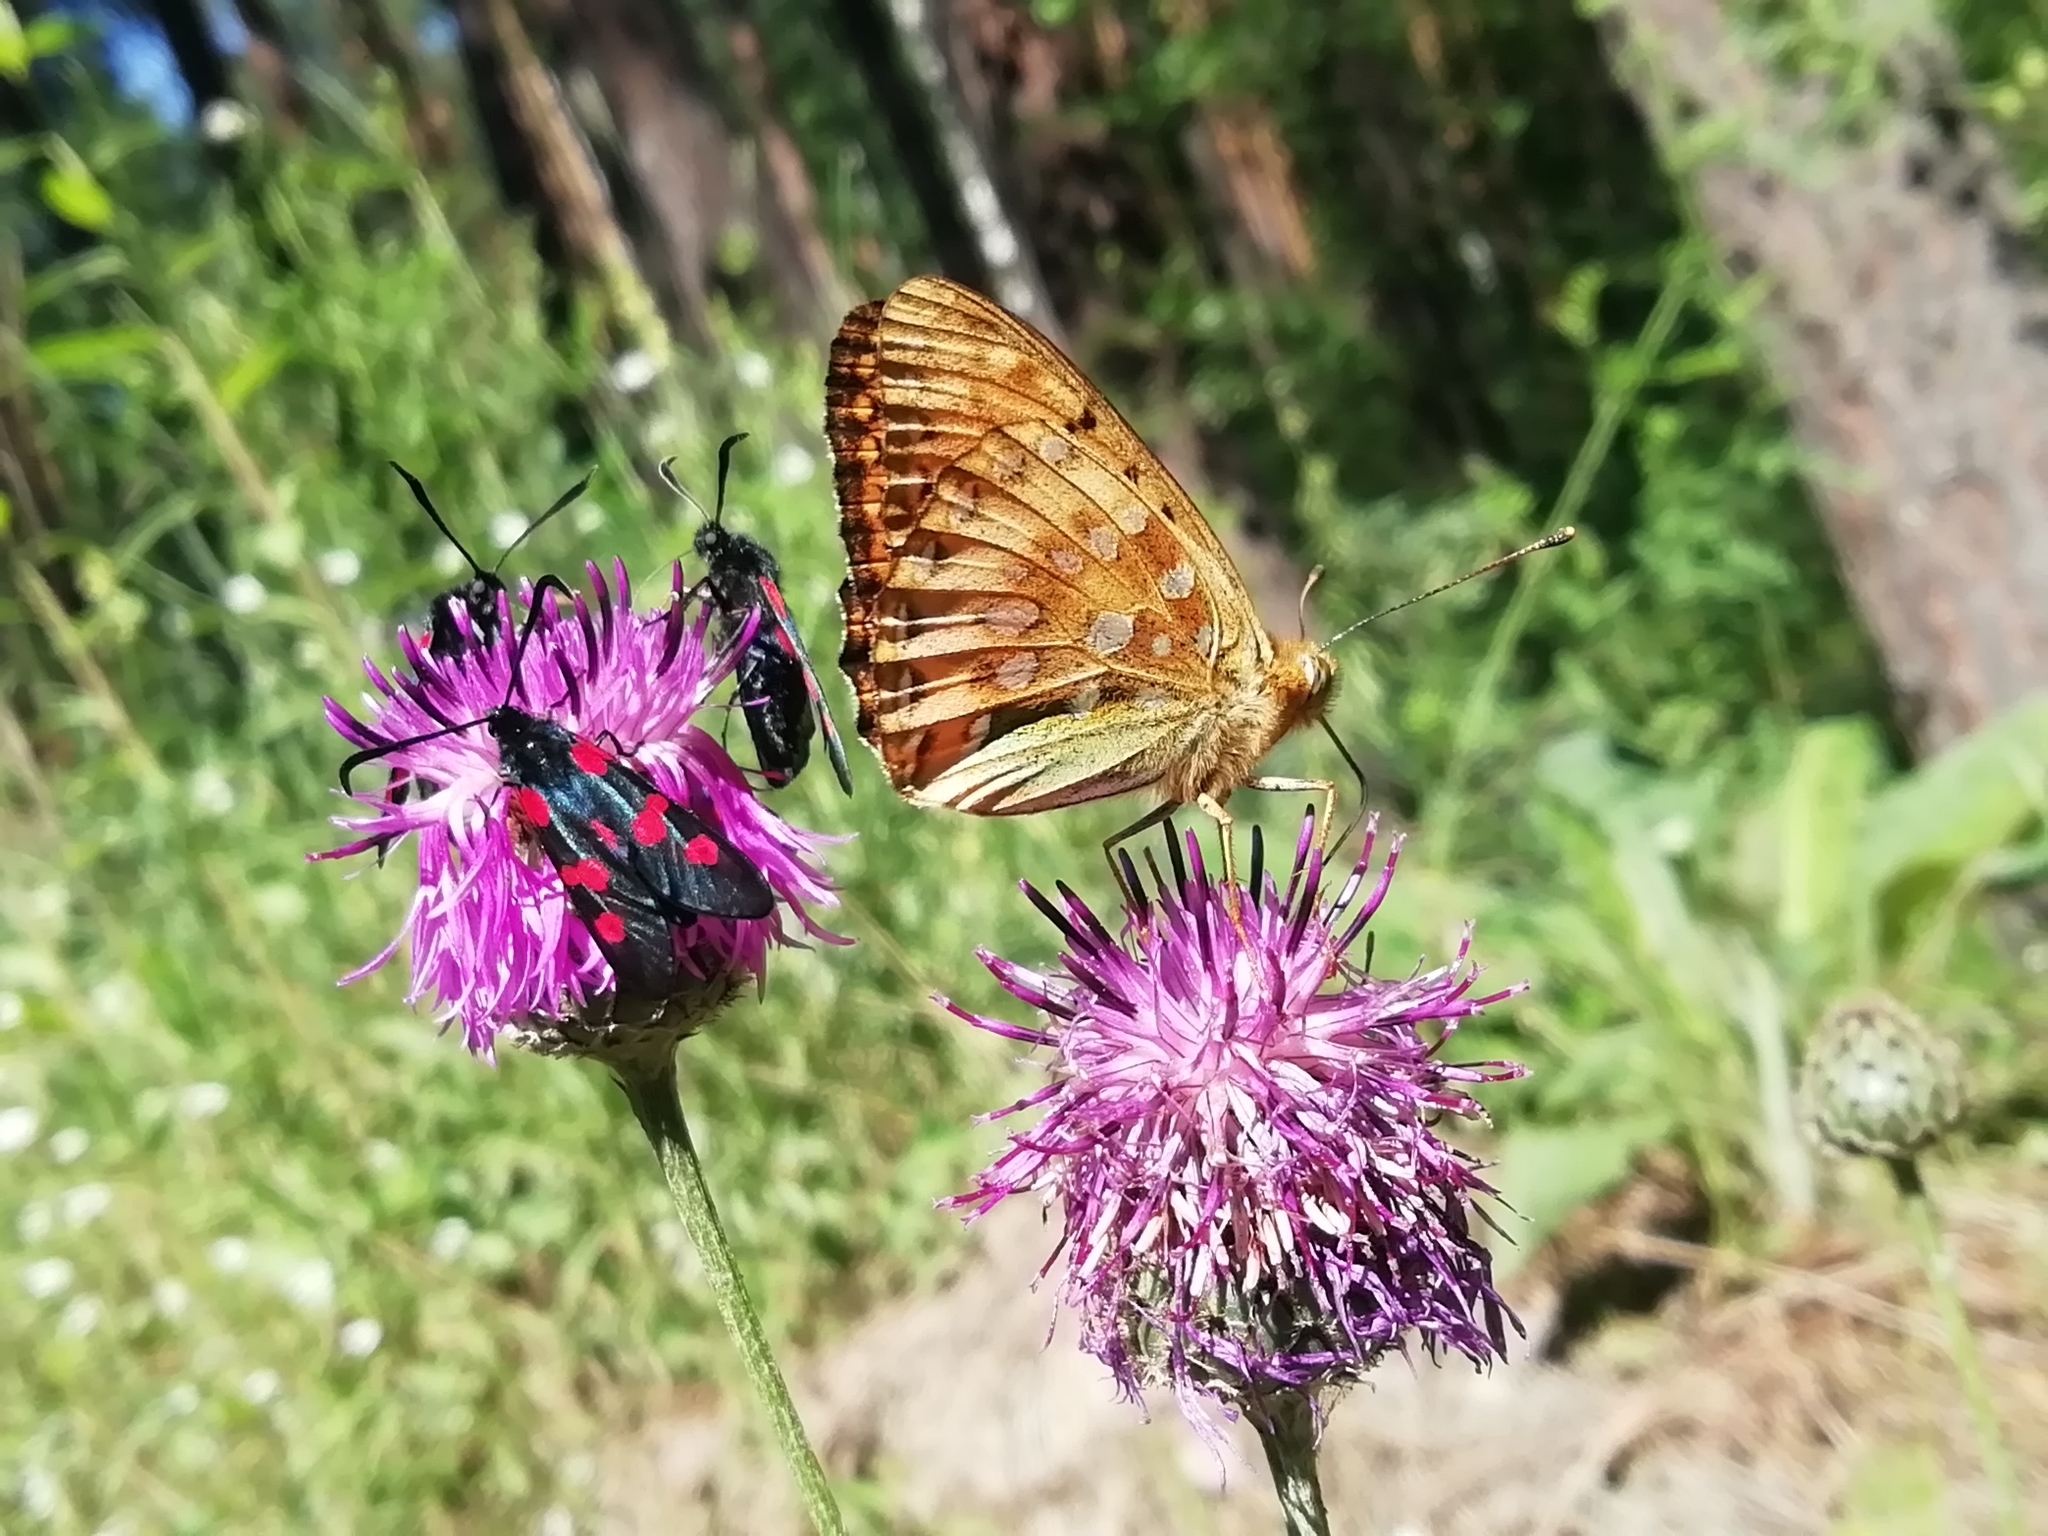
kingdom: Animalia
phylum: Arthropoda
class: Insecta
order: Lepidoptera
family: Nymphalidae
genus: Speyeria
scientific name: Speyeria aglaja
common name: Dark green fritillary
